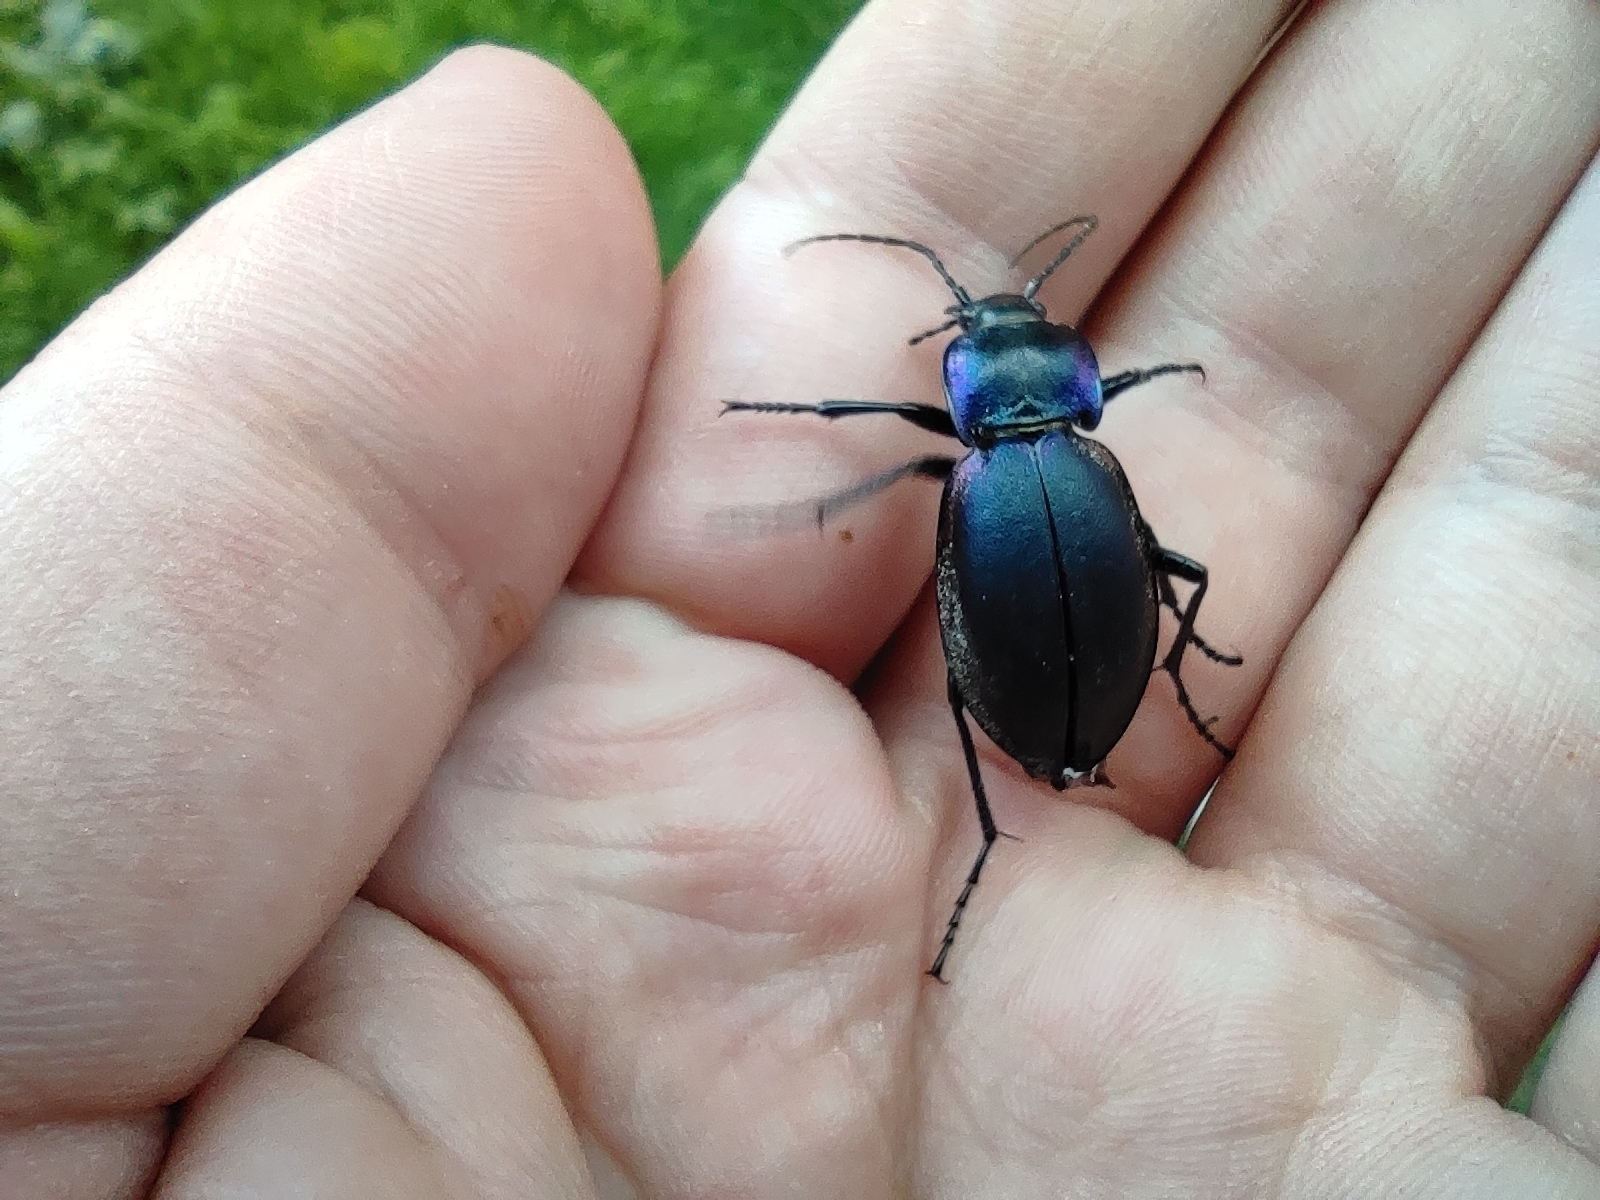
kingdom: Animalia
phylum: Arthropoda
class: Insecta
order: Coleoptera
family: Carabidae
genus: Carabus
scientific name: Carabus violaceus
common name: Violet ground beetle
